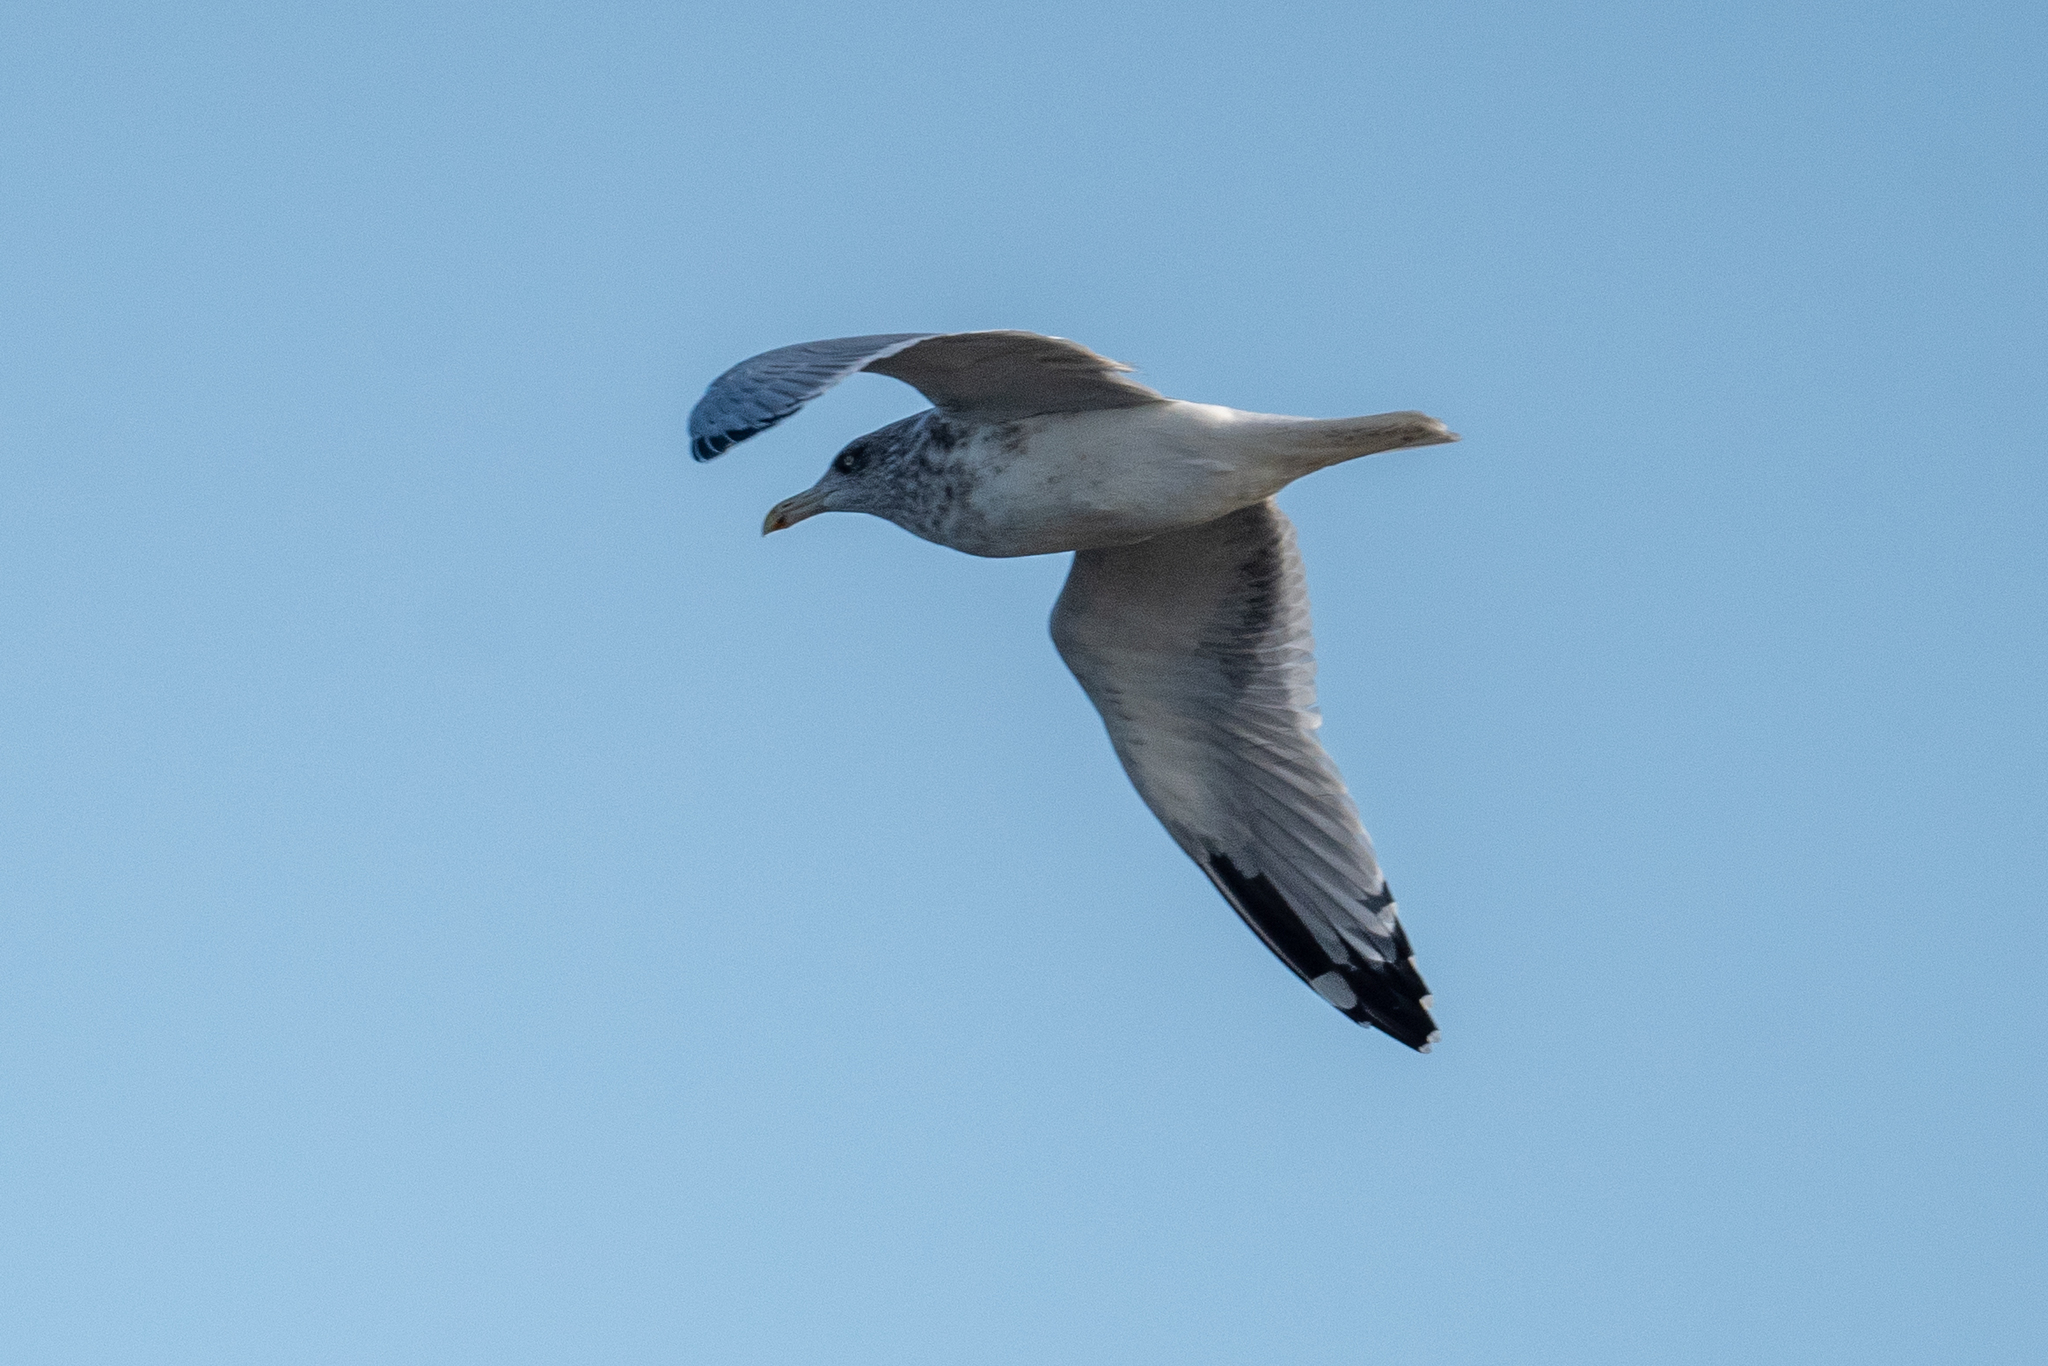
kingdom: Animalia
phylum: Chordata
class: Aves
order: Charadriiformes
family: Laridae
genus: Larus
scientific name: Larus californicus
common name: California gull
